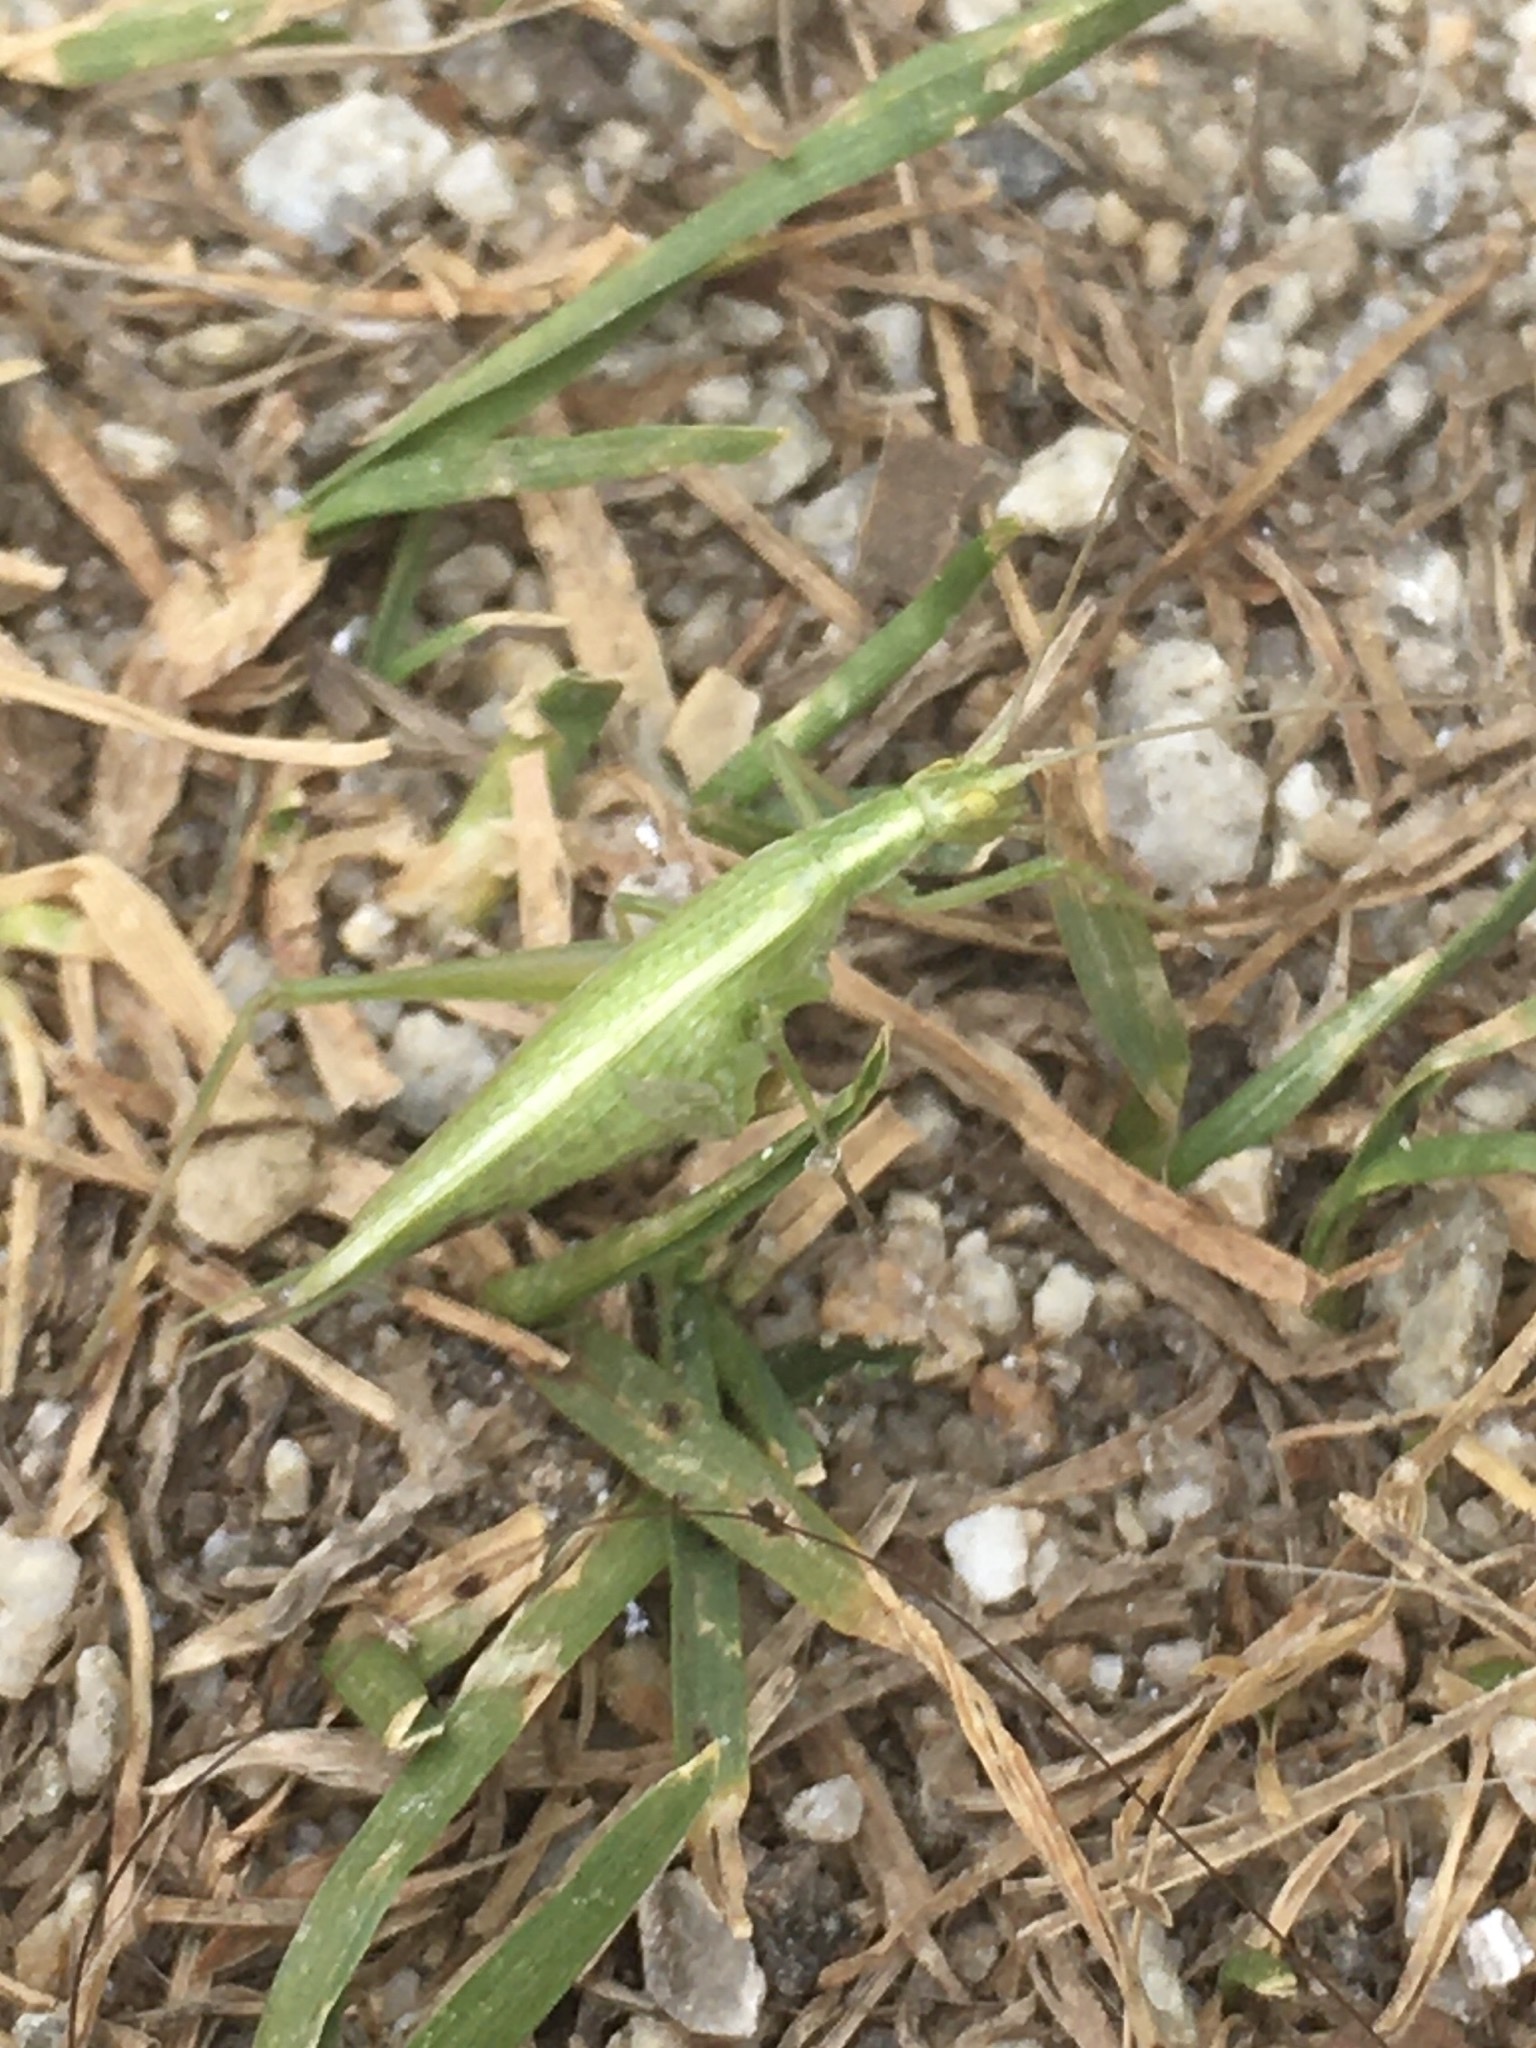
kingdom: Animalia
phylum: Arthropoda
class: Insecta
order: Orthoptera
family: Gryllidae
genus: Oecanthus
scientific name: Oecanthus quadripunctatus
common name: Four-spotted tree cricket
